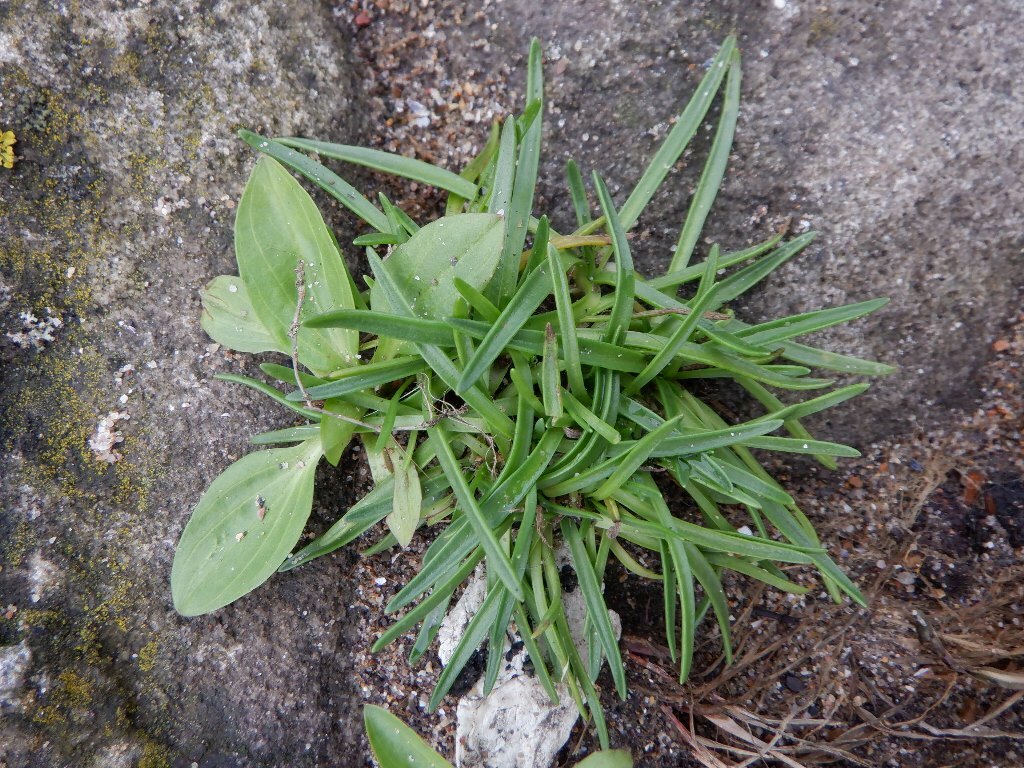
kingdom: Plantae
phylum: Tracheophyta
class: Magnoliopsida
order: Lamiales
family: Plantaginaceae
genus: Plantago
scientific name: Plantago maritima
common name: Sea plantain
